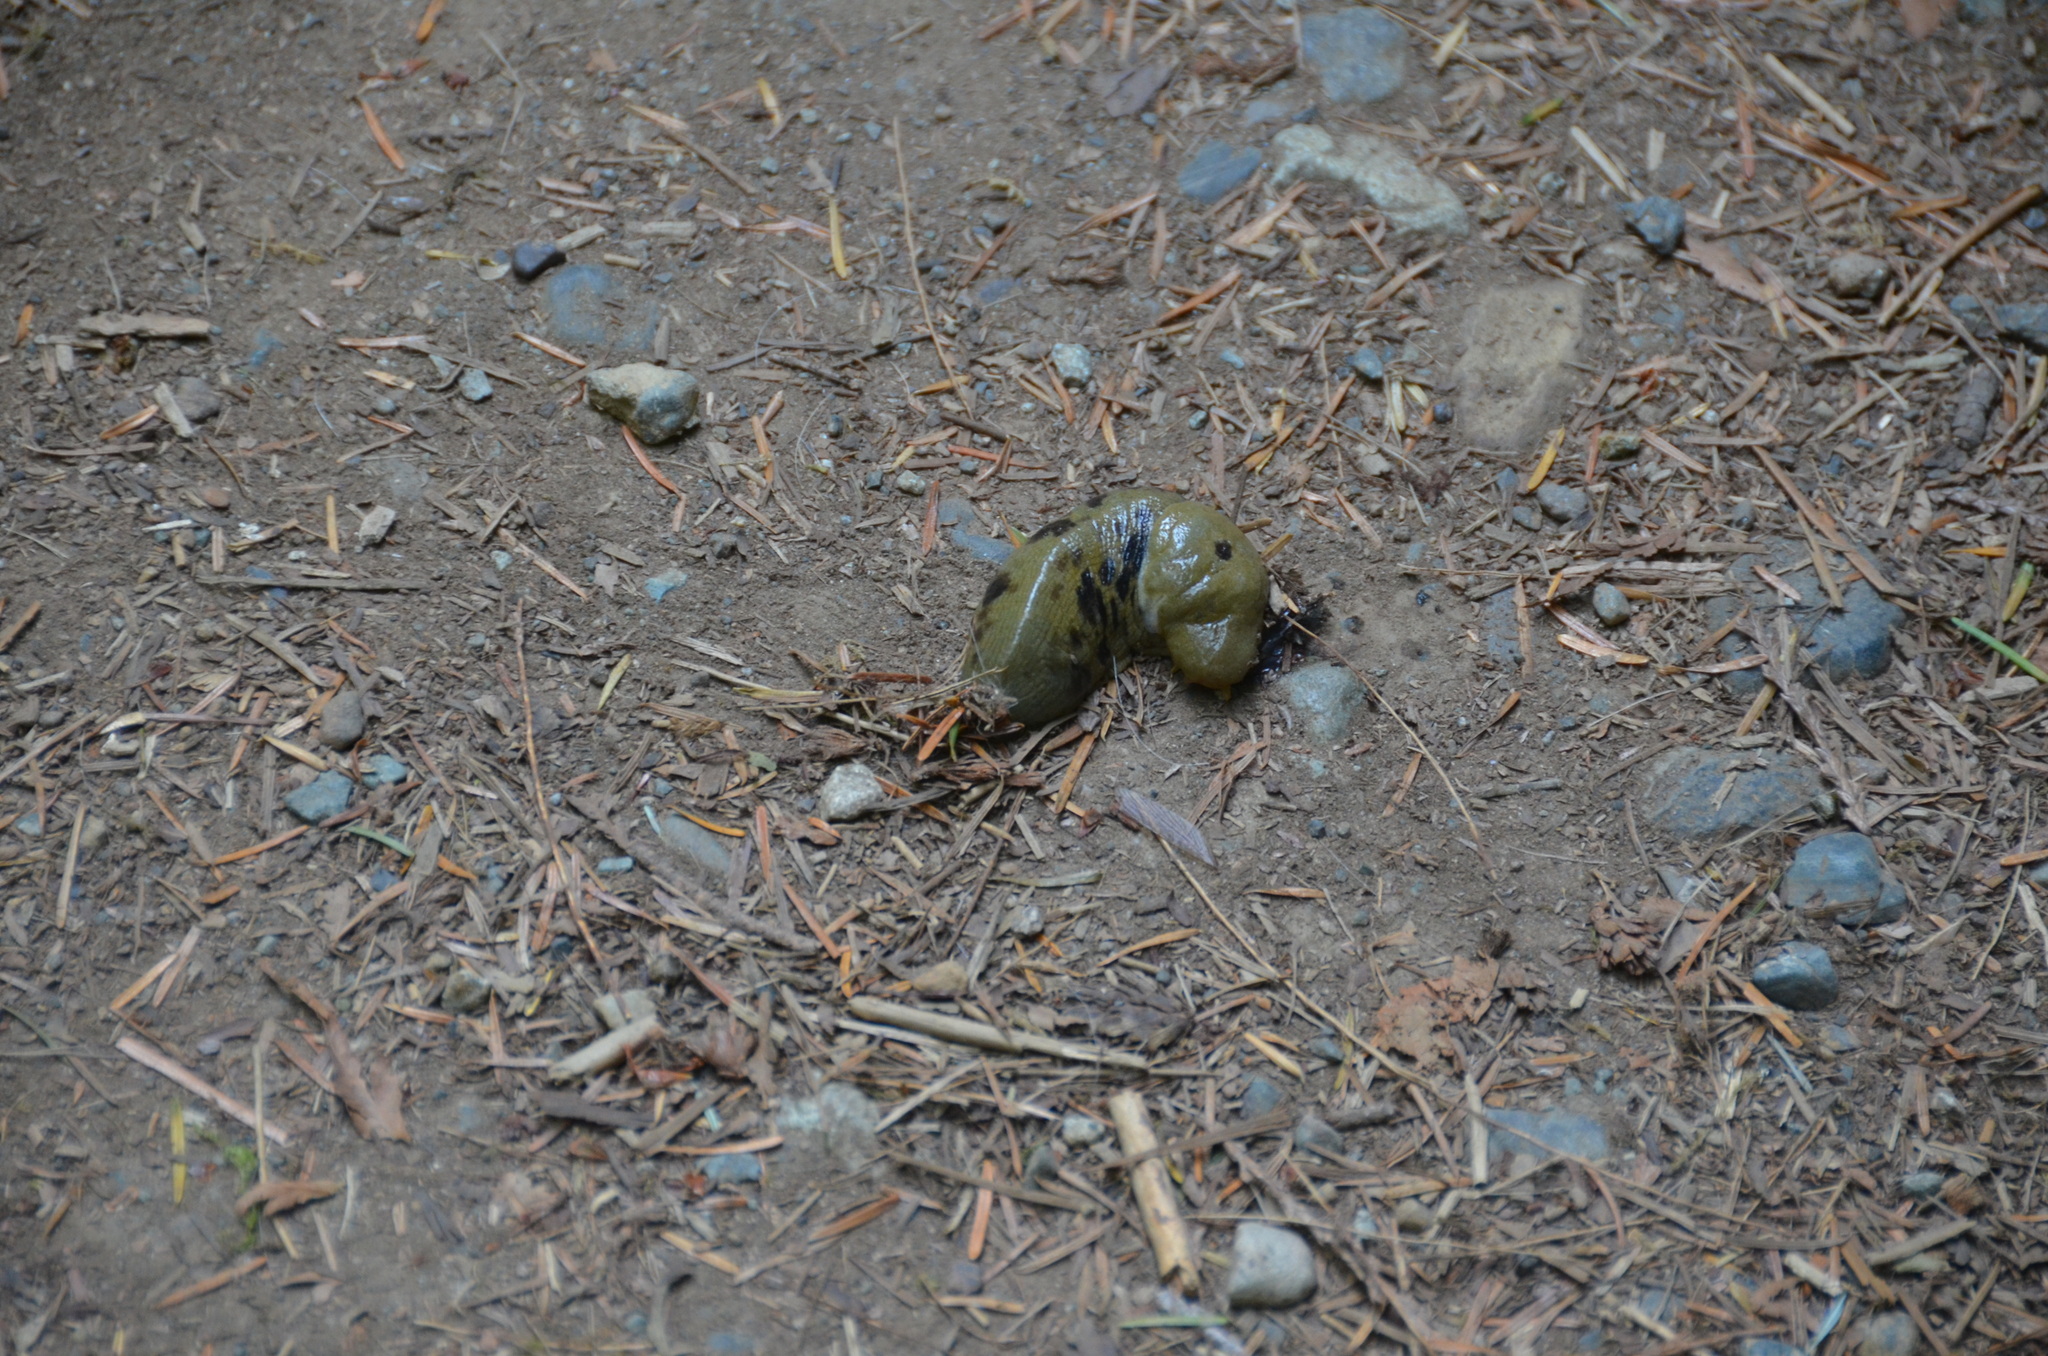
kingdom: Animalia
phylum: Mollusca
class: Gastropoda
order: Stylommatophora
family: Ariolimacidae
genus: Ariolimax
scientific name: Ariolimax columbianus
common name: Pacific banana slug
